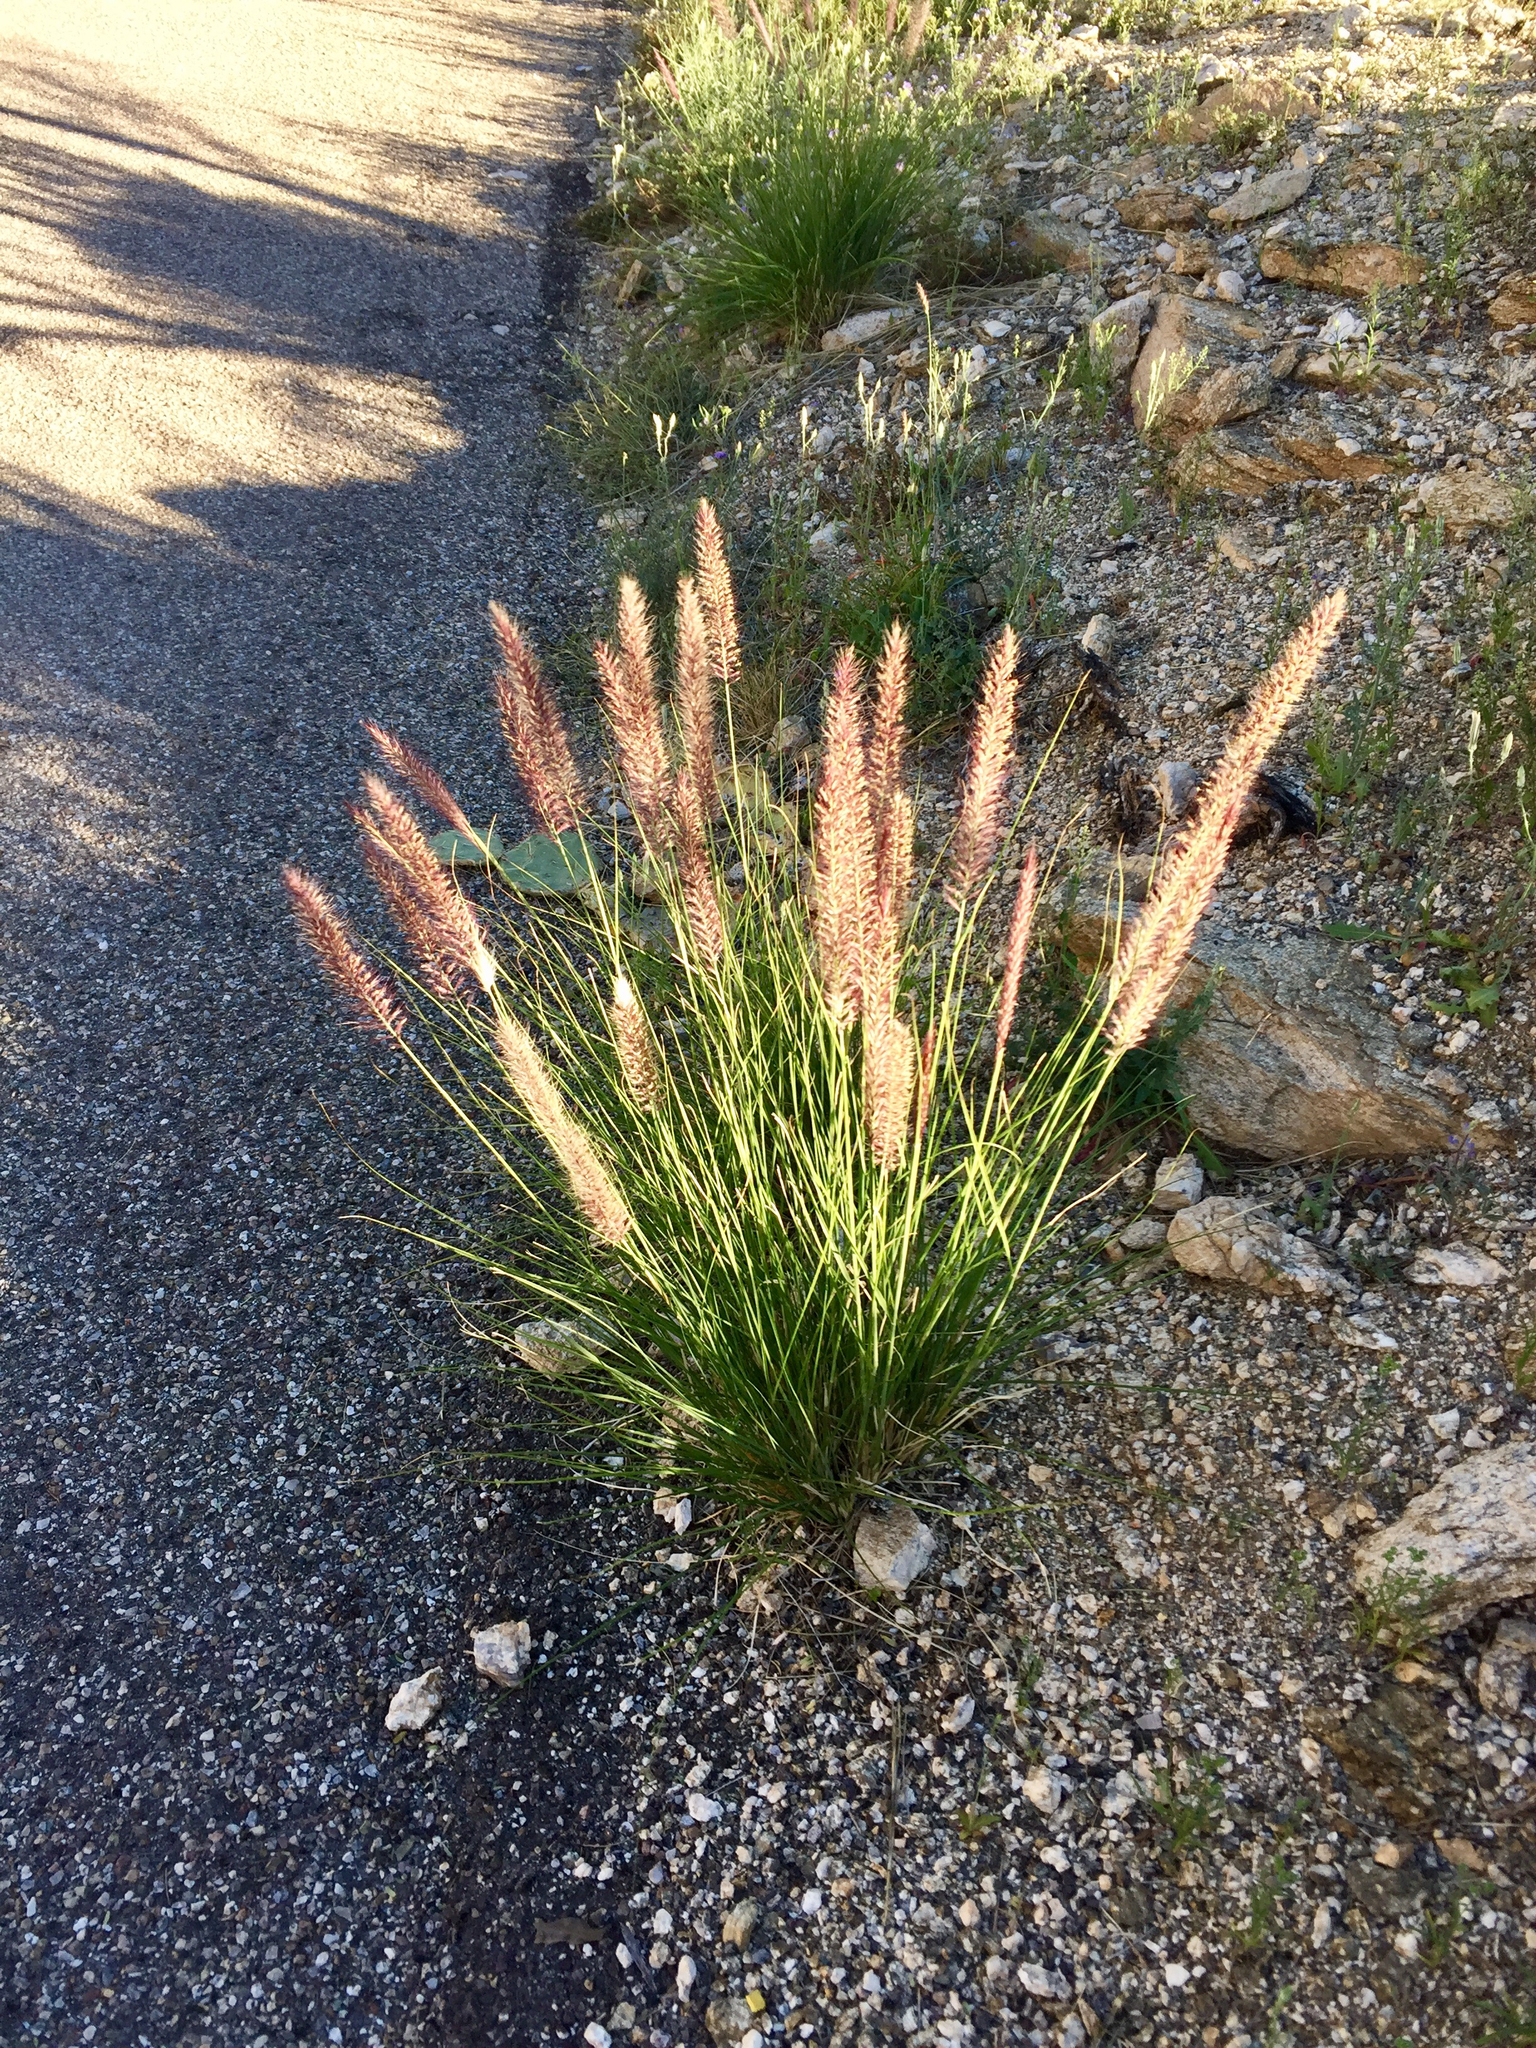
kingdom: Plantae
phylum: Tracheophyta
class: Liliopsida
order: Poales
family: Poaceae
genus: Cenchrus
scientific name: Cenchrus setaceus
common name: Crimson fountaingrass
